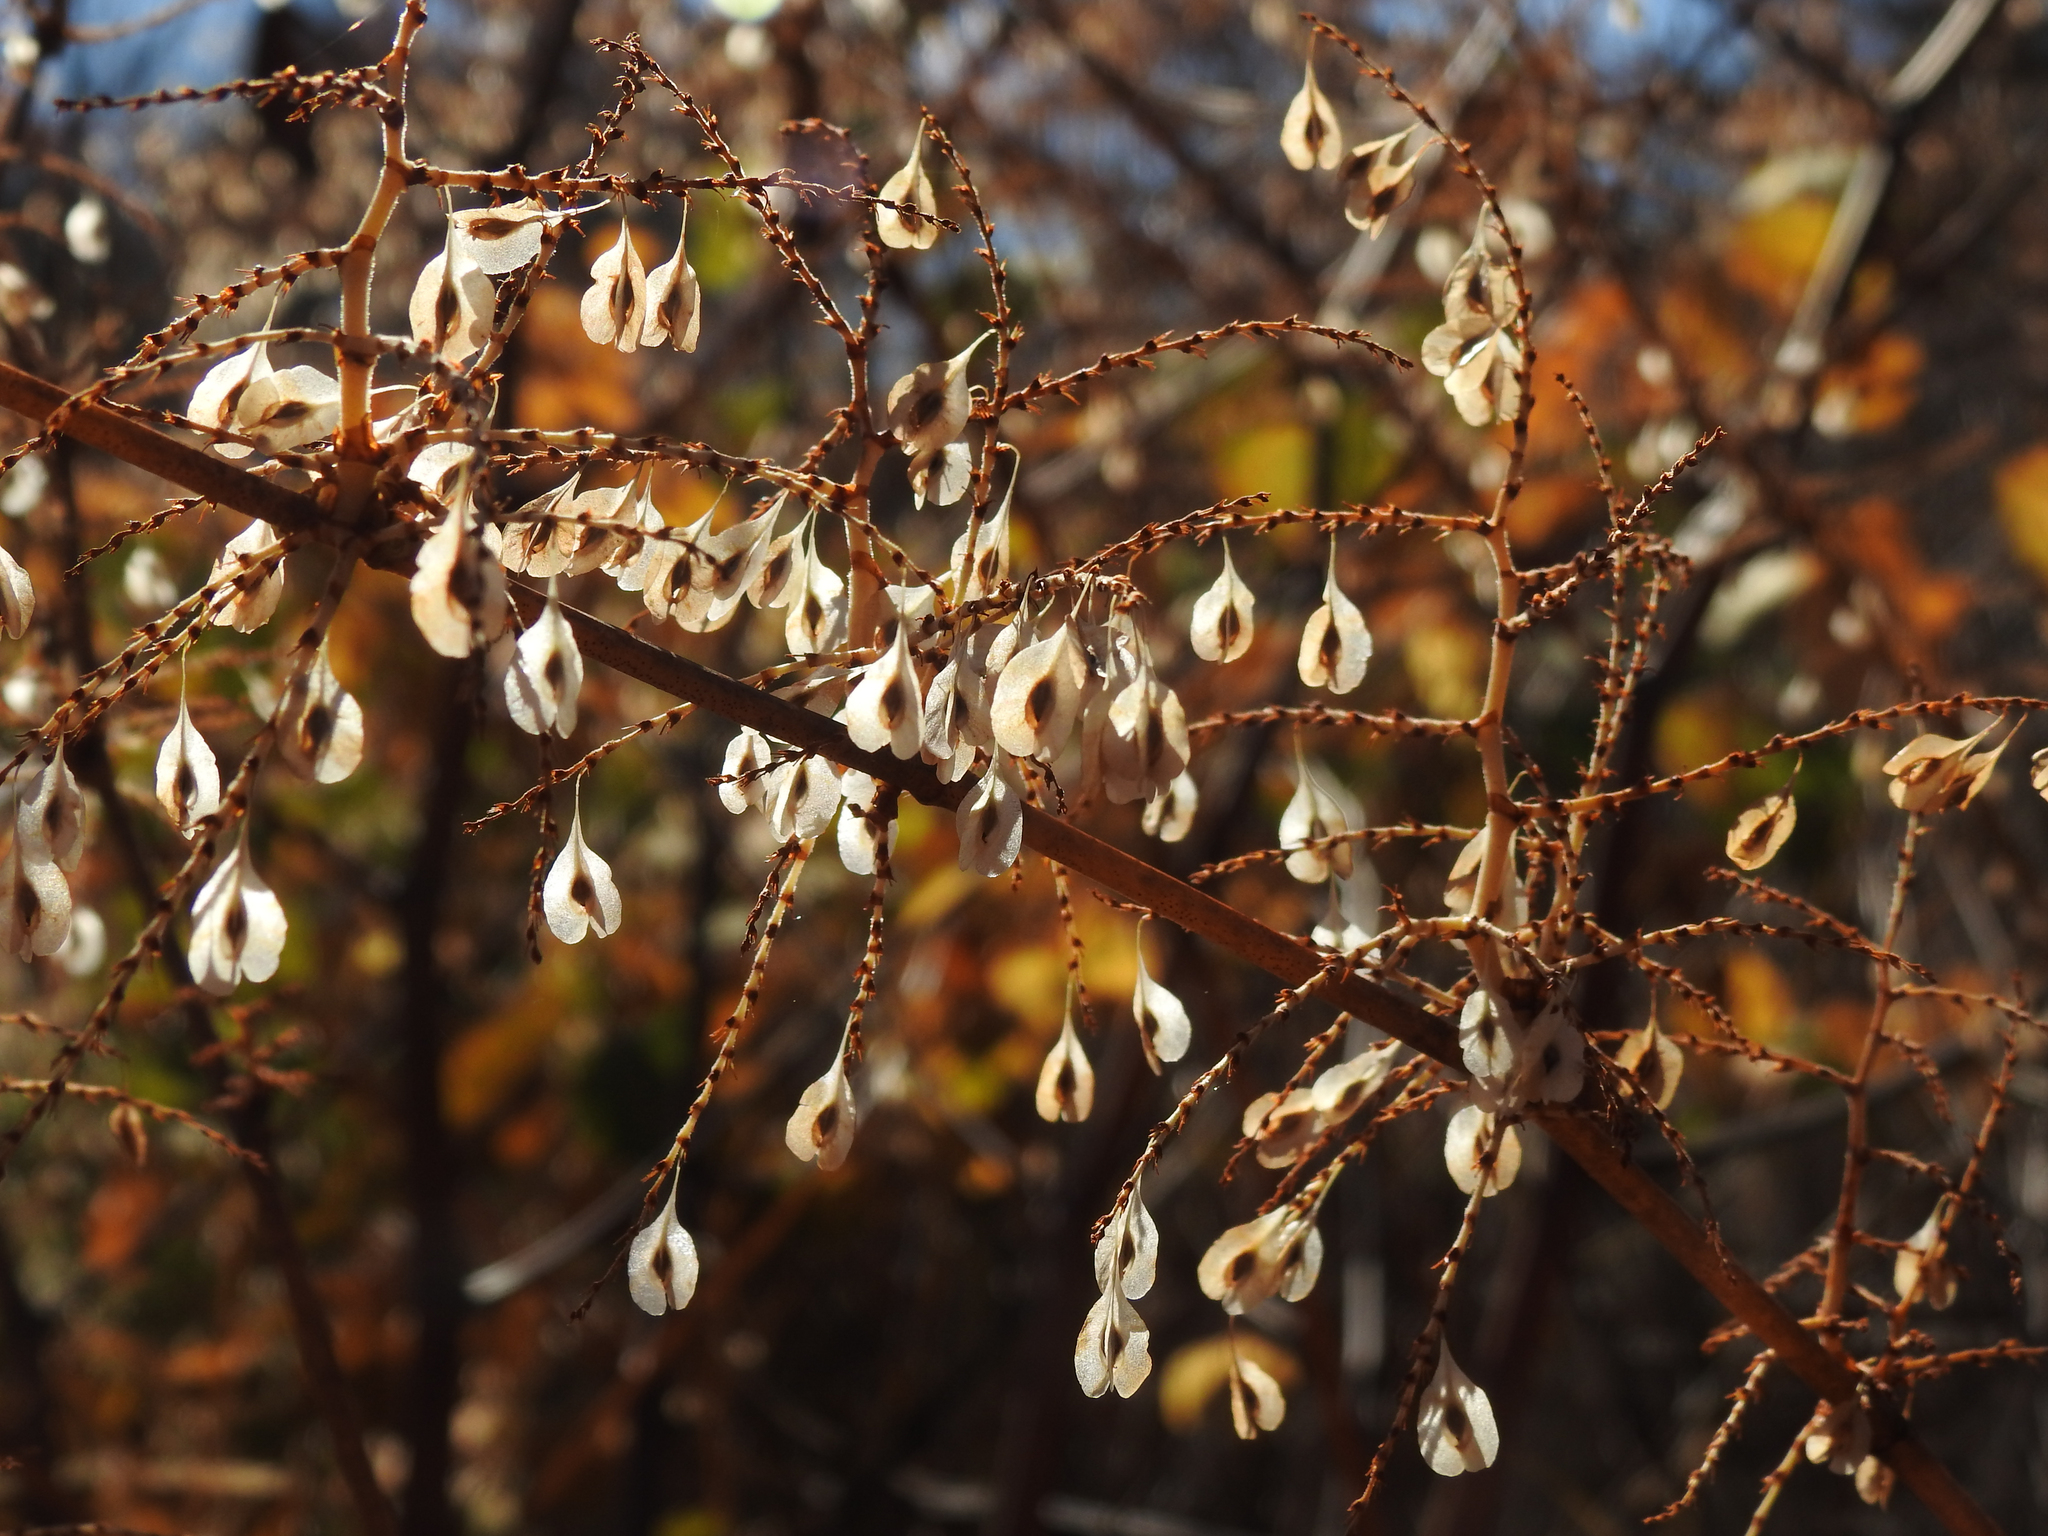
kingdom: Plantae
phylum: Tracheophyta
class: Magnoliopsida
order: Caryophyllales
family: Polygonaceae
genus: Reynoutria
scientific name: Reynoutria japonica
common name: Japanese knotweed
